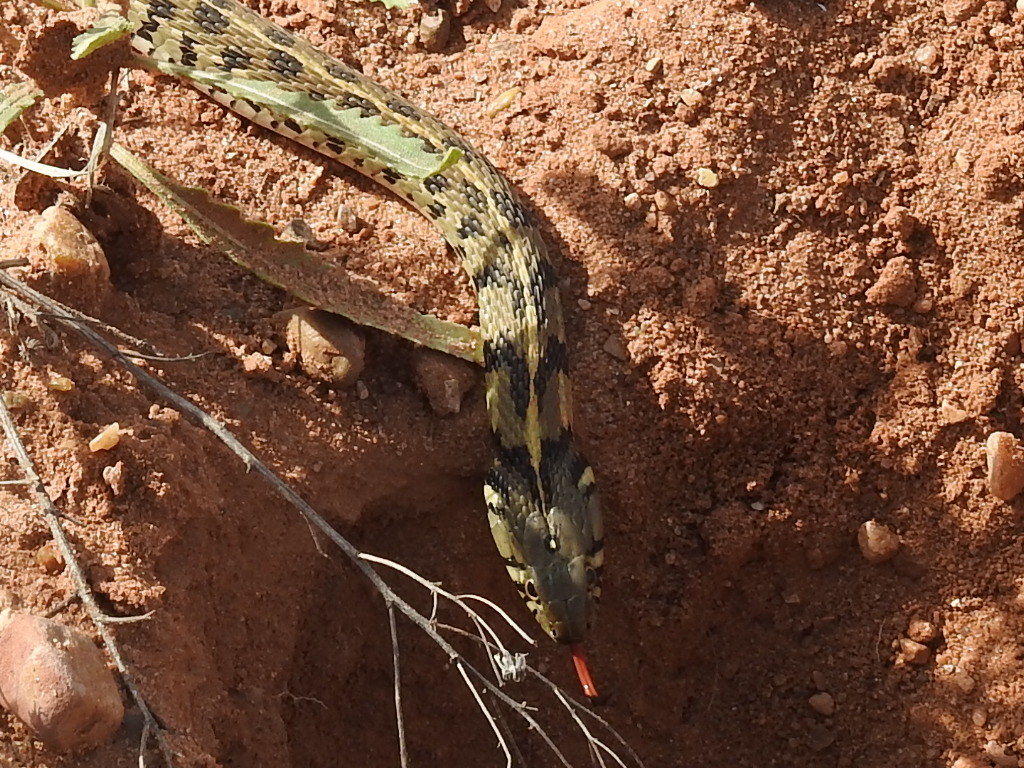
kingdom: Animalia
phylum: Chordata
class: Squamata
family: Colubridae
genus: Thamnophis
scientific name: Thamnophis marcianus
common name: Checkered garter snake
